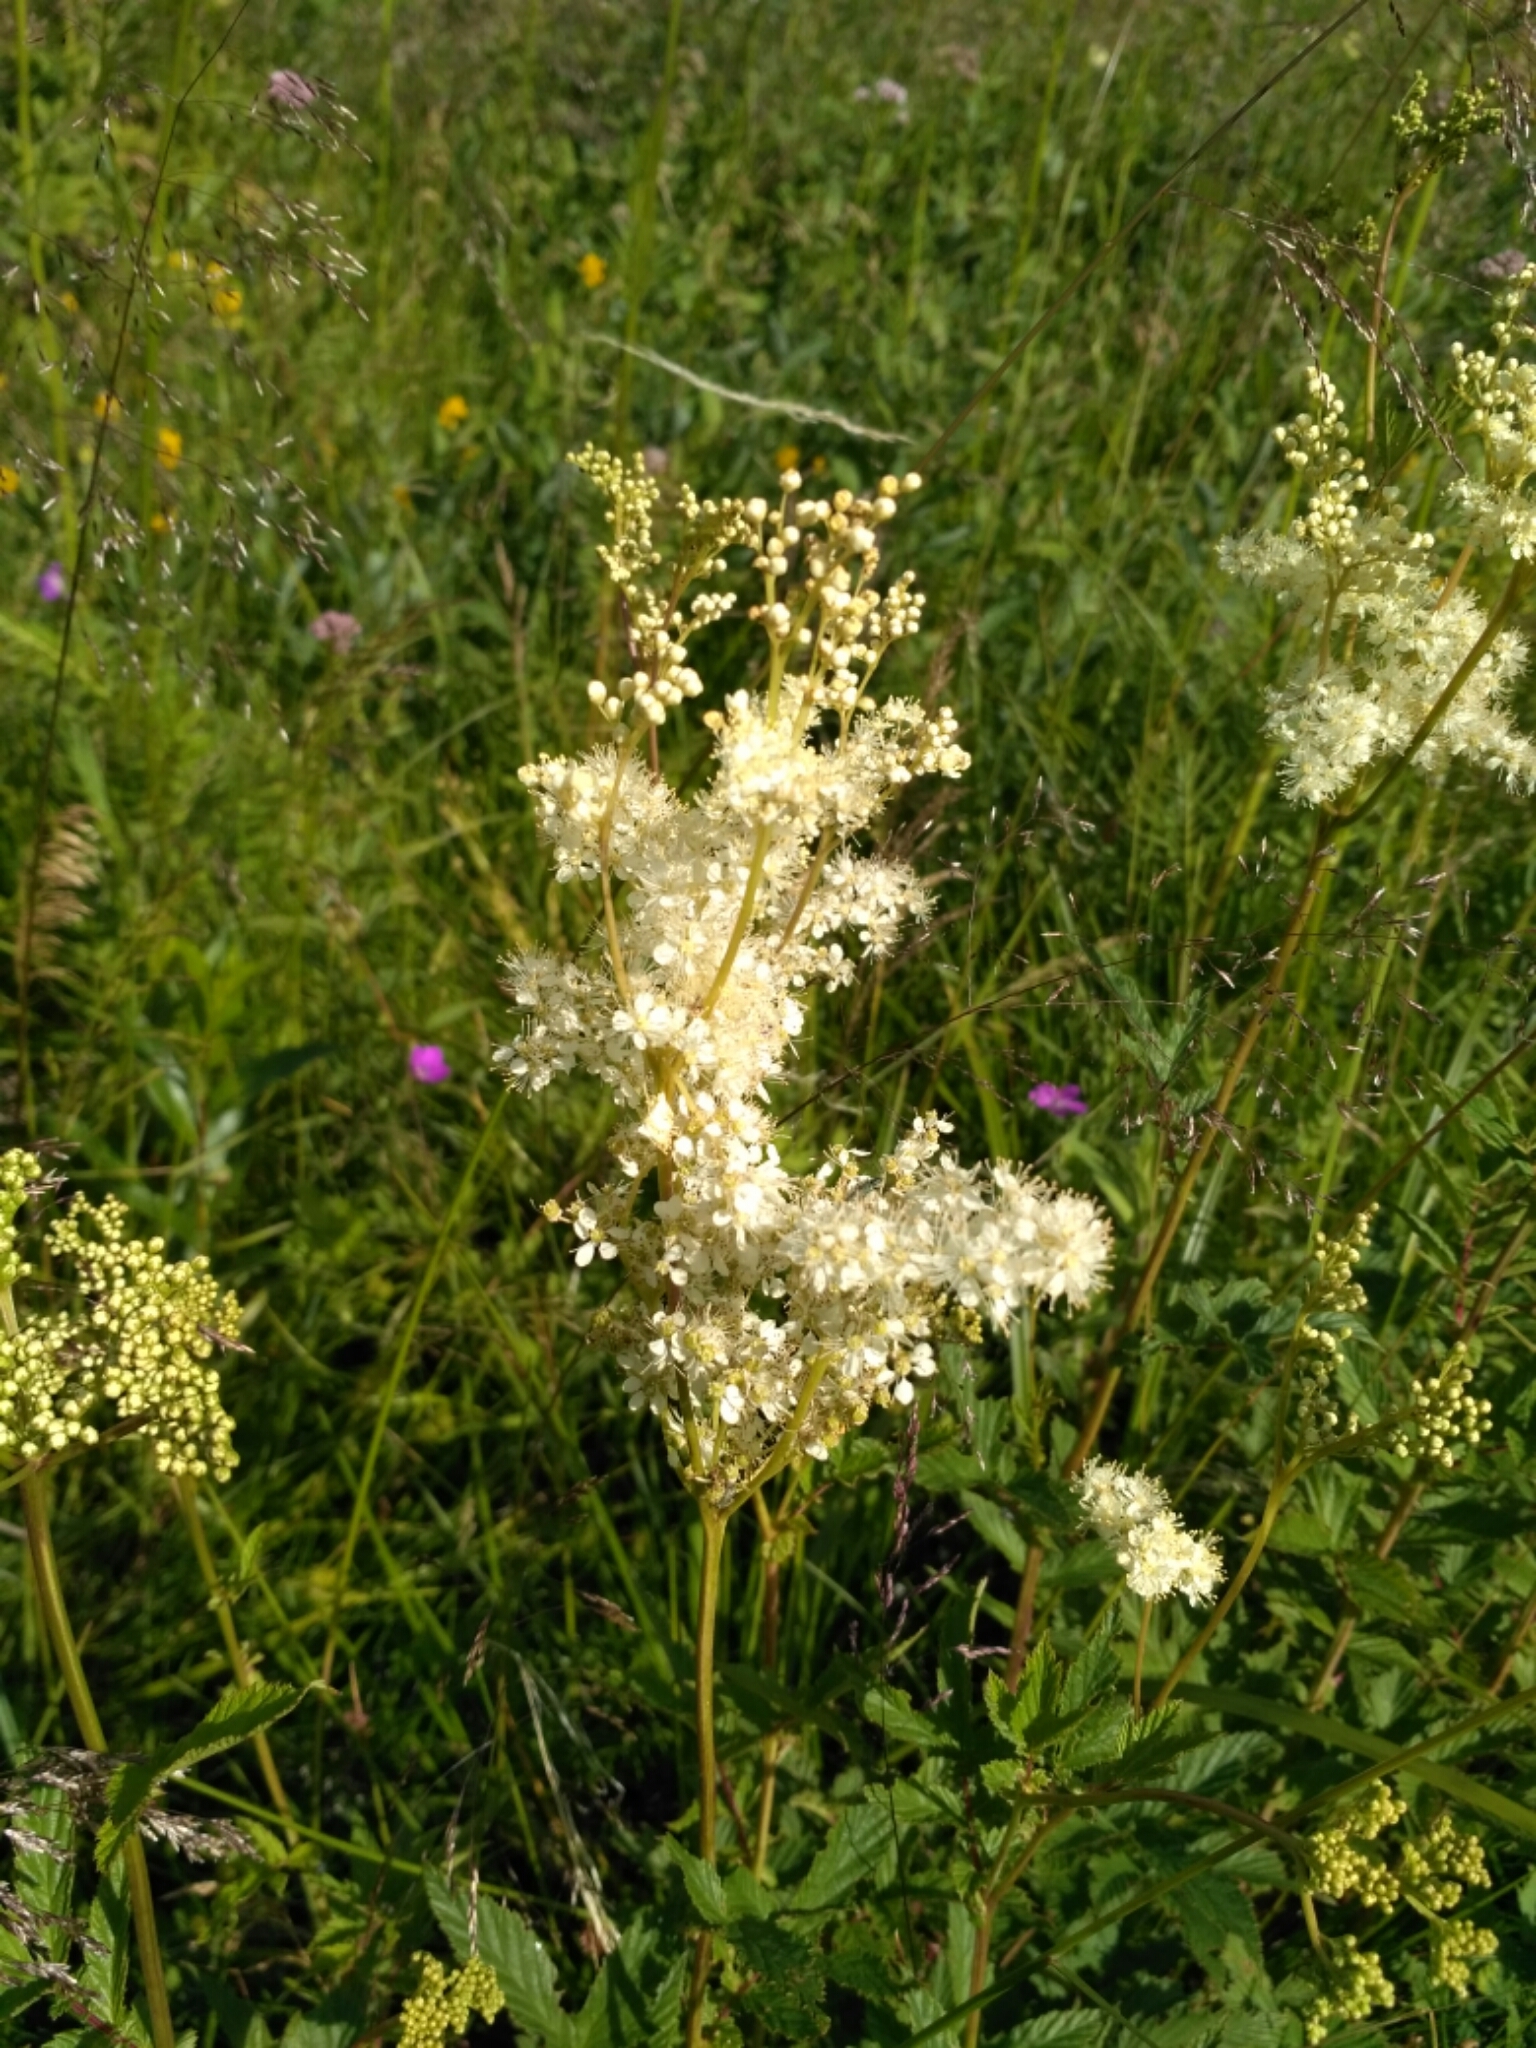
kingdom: Plantae
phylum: Tracheophyta
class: Magnoliopsida
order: Rosales
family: Rosaceae
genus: Filipendula
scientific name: Filipendula ulmaria
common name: Meadowsweet
